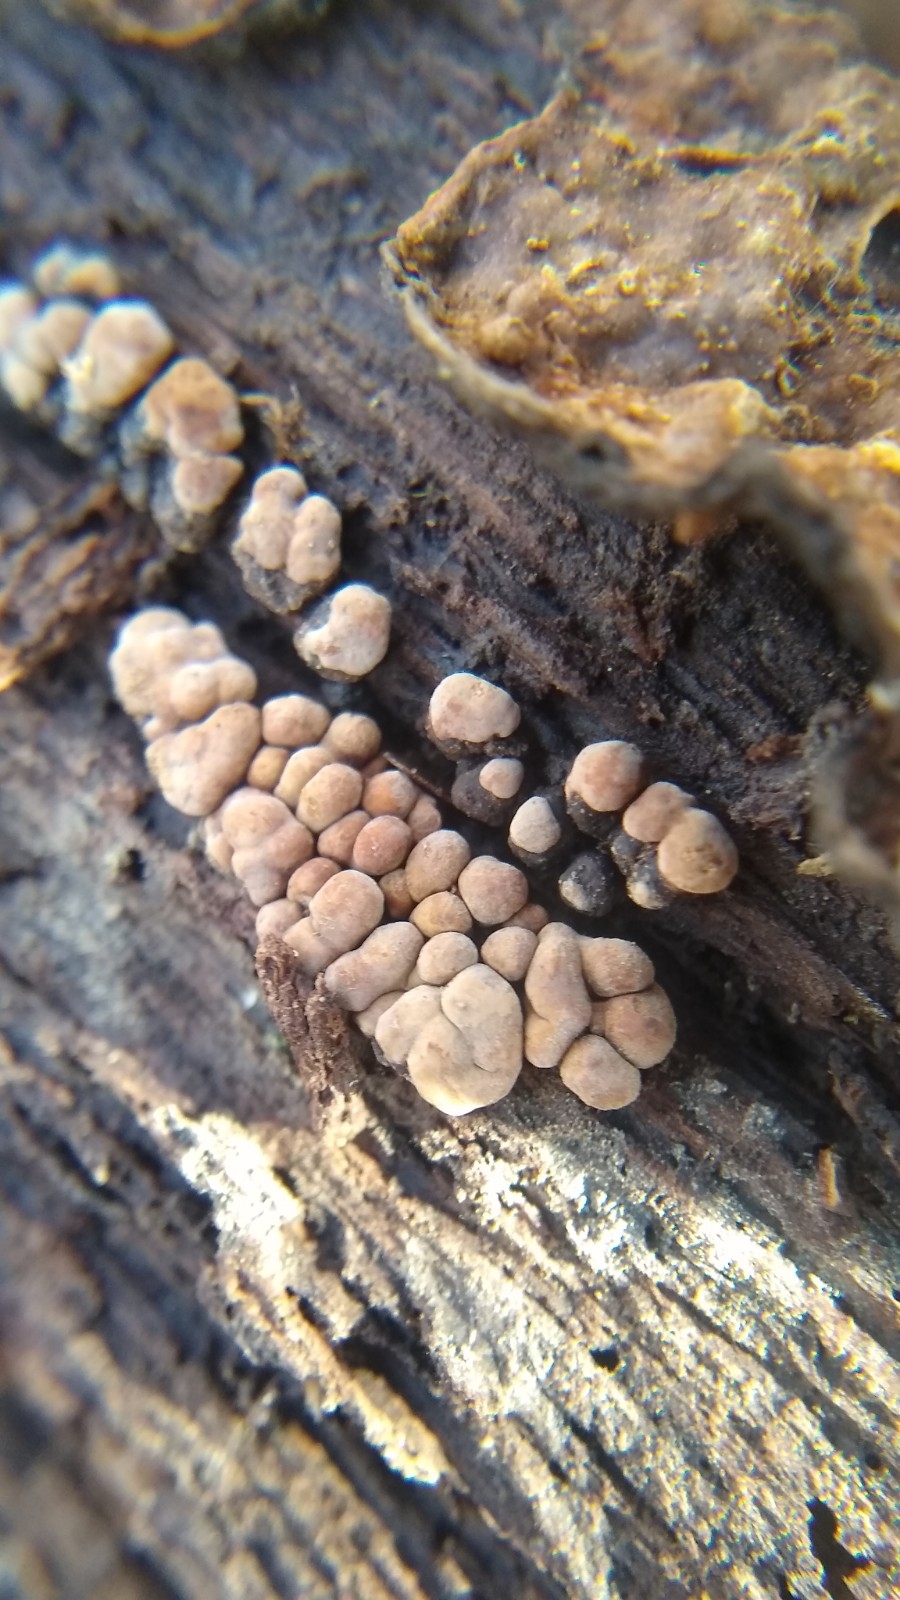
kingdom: Fungi
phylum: Basidiomycota
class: Agaricomycetes
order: Russulales
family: Stereaceae
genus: Xylobolus
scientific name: Xylobolus frustulatus
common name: Ceramic parchment
